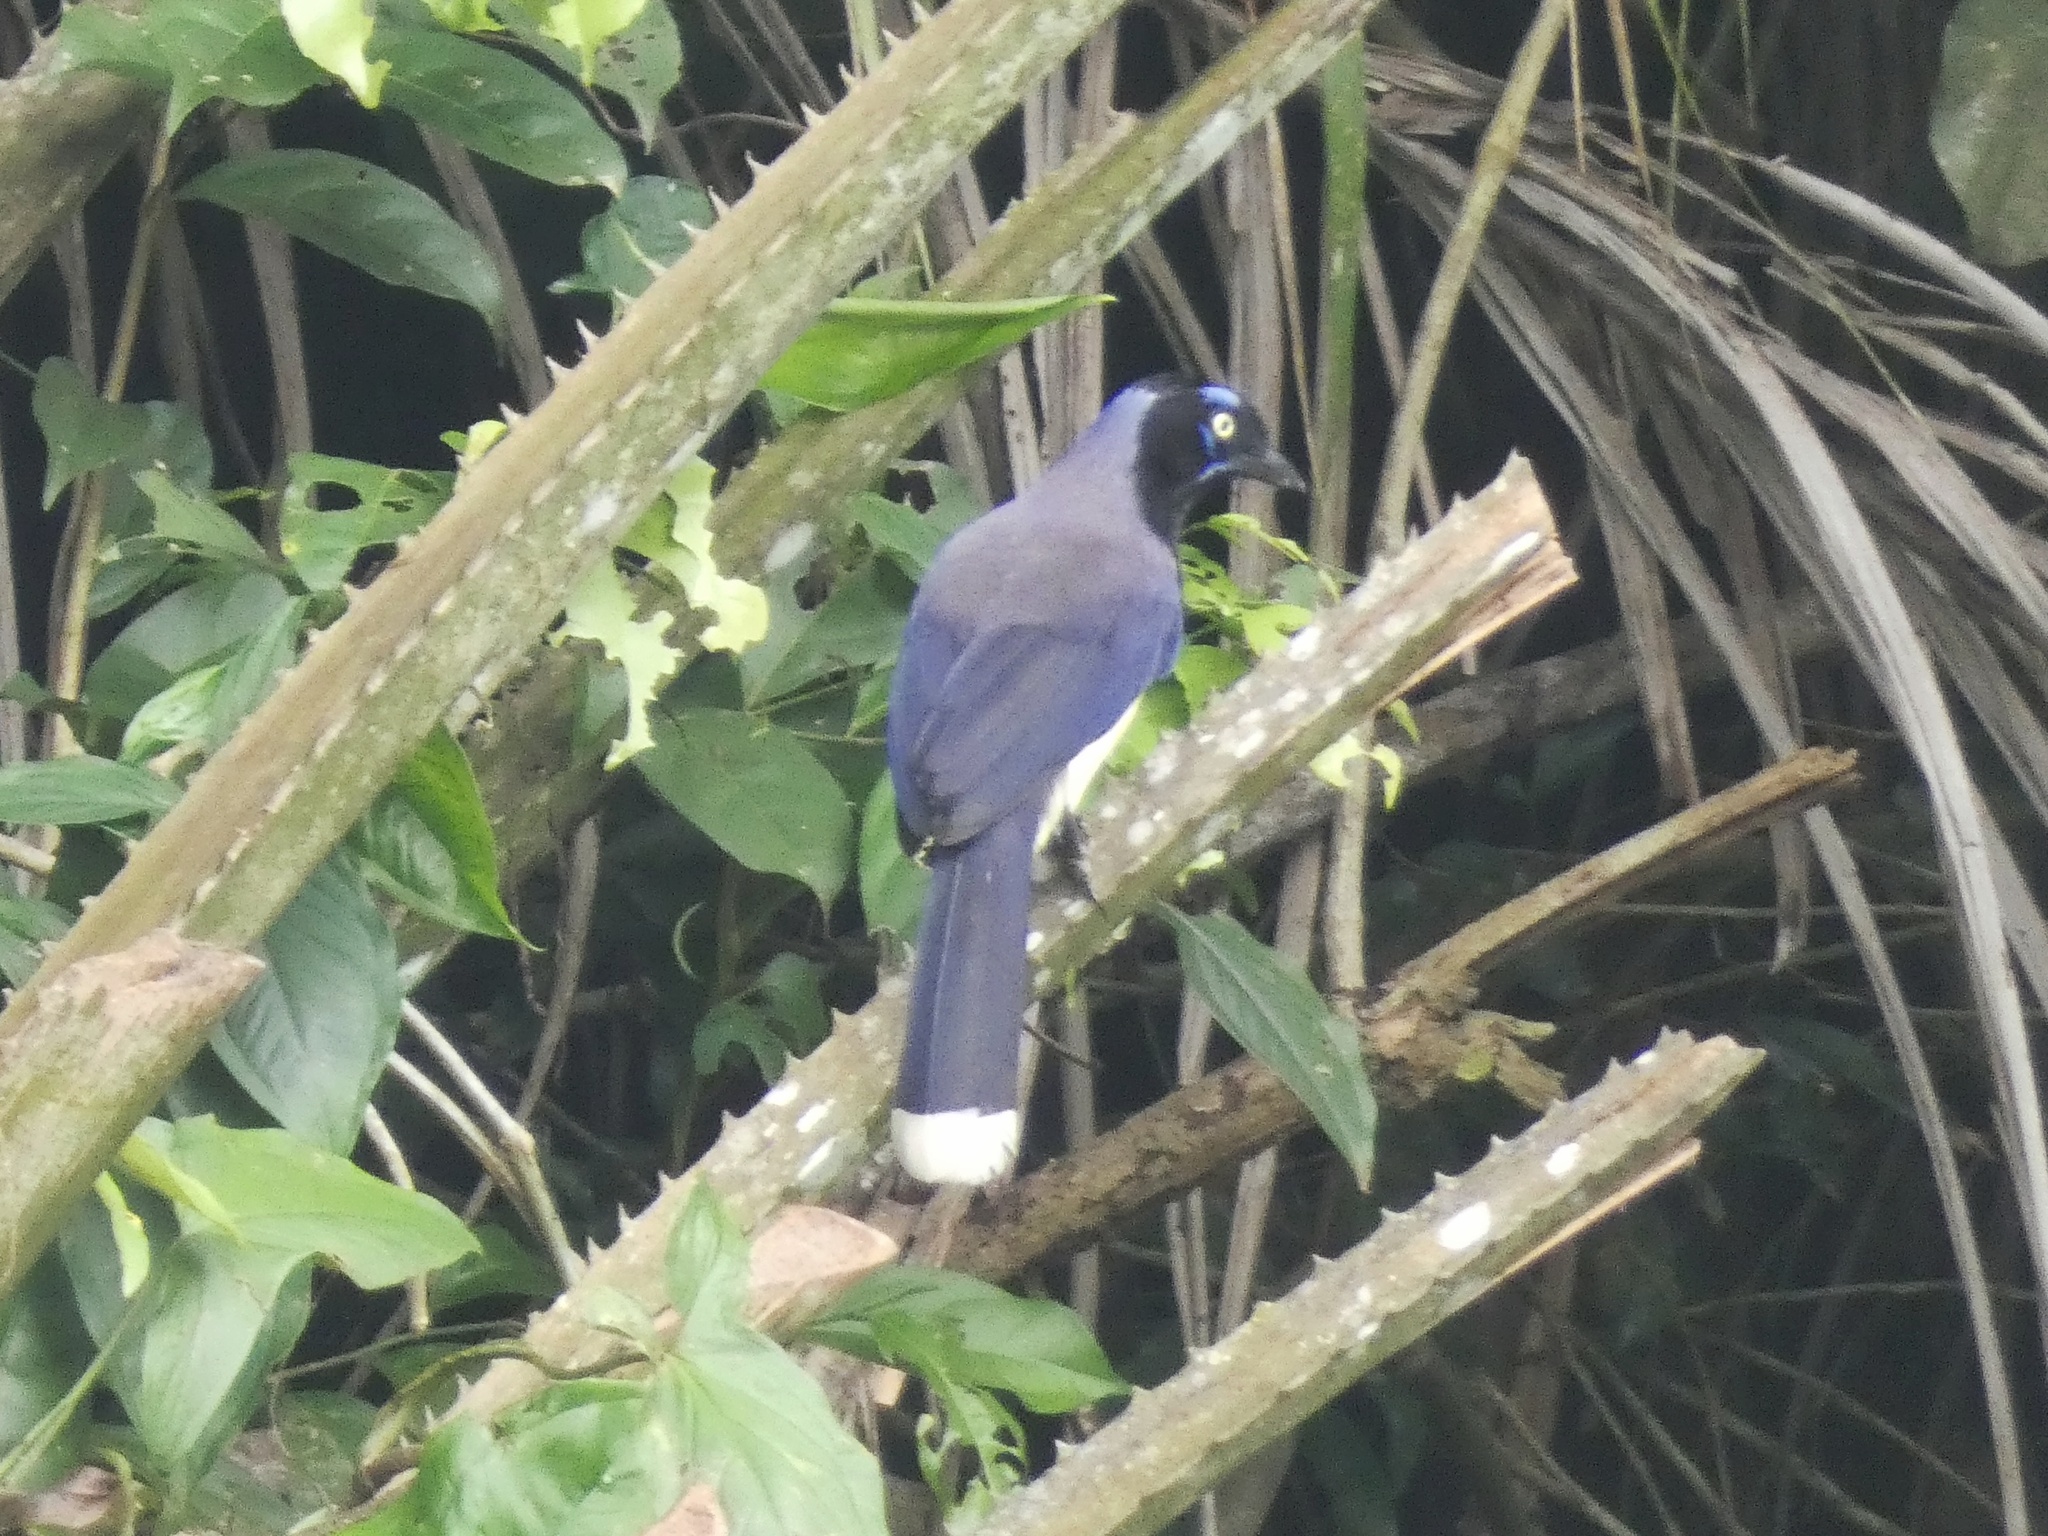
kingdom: Animalia
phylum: Chordata
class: Aves
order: Passeriformes
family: Corvidae
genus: Cyanocorax
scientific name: Cyanocorax affinis
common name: Black-chested jay
